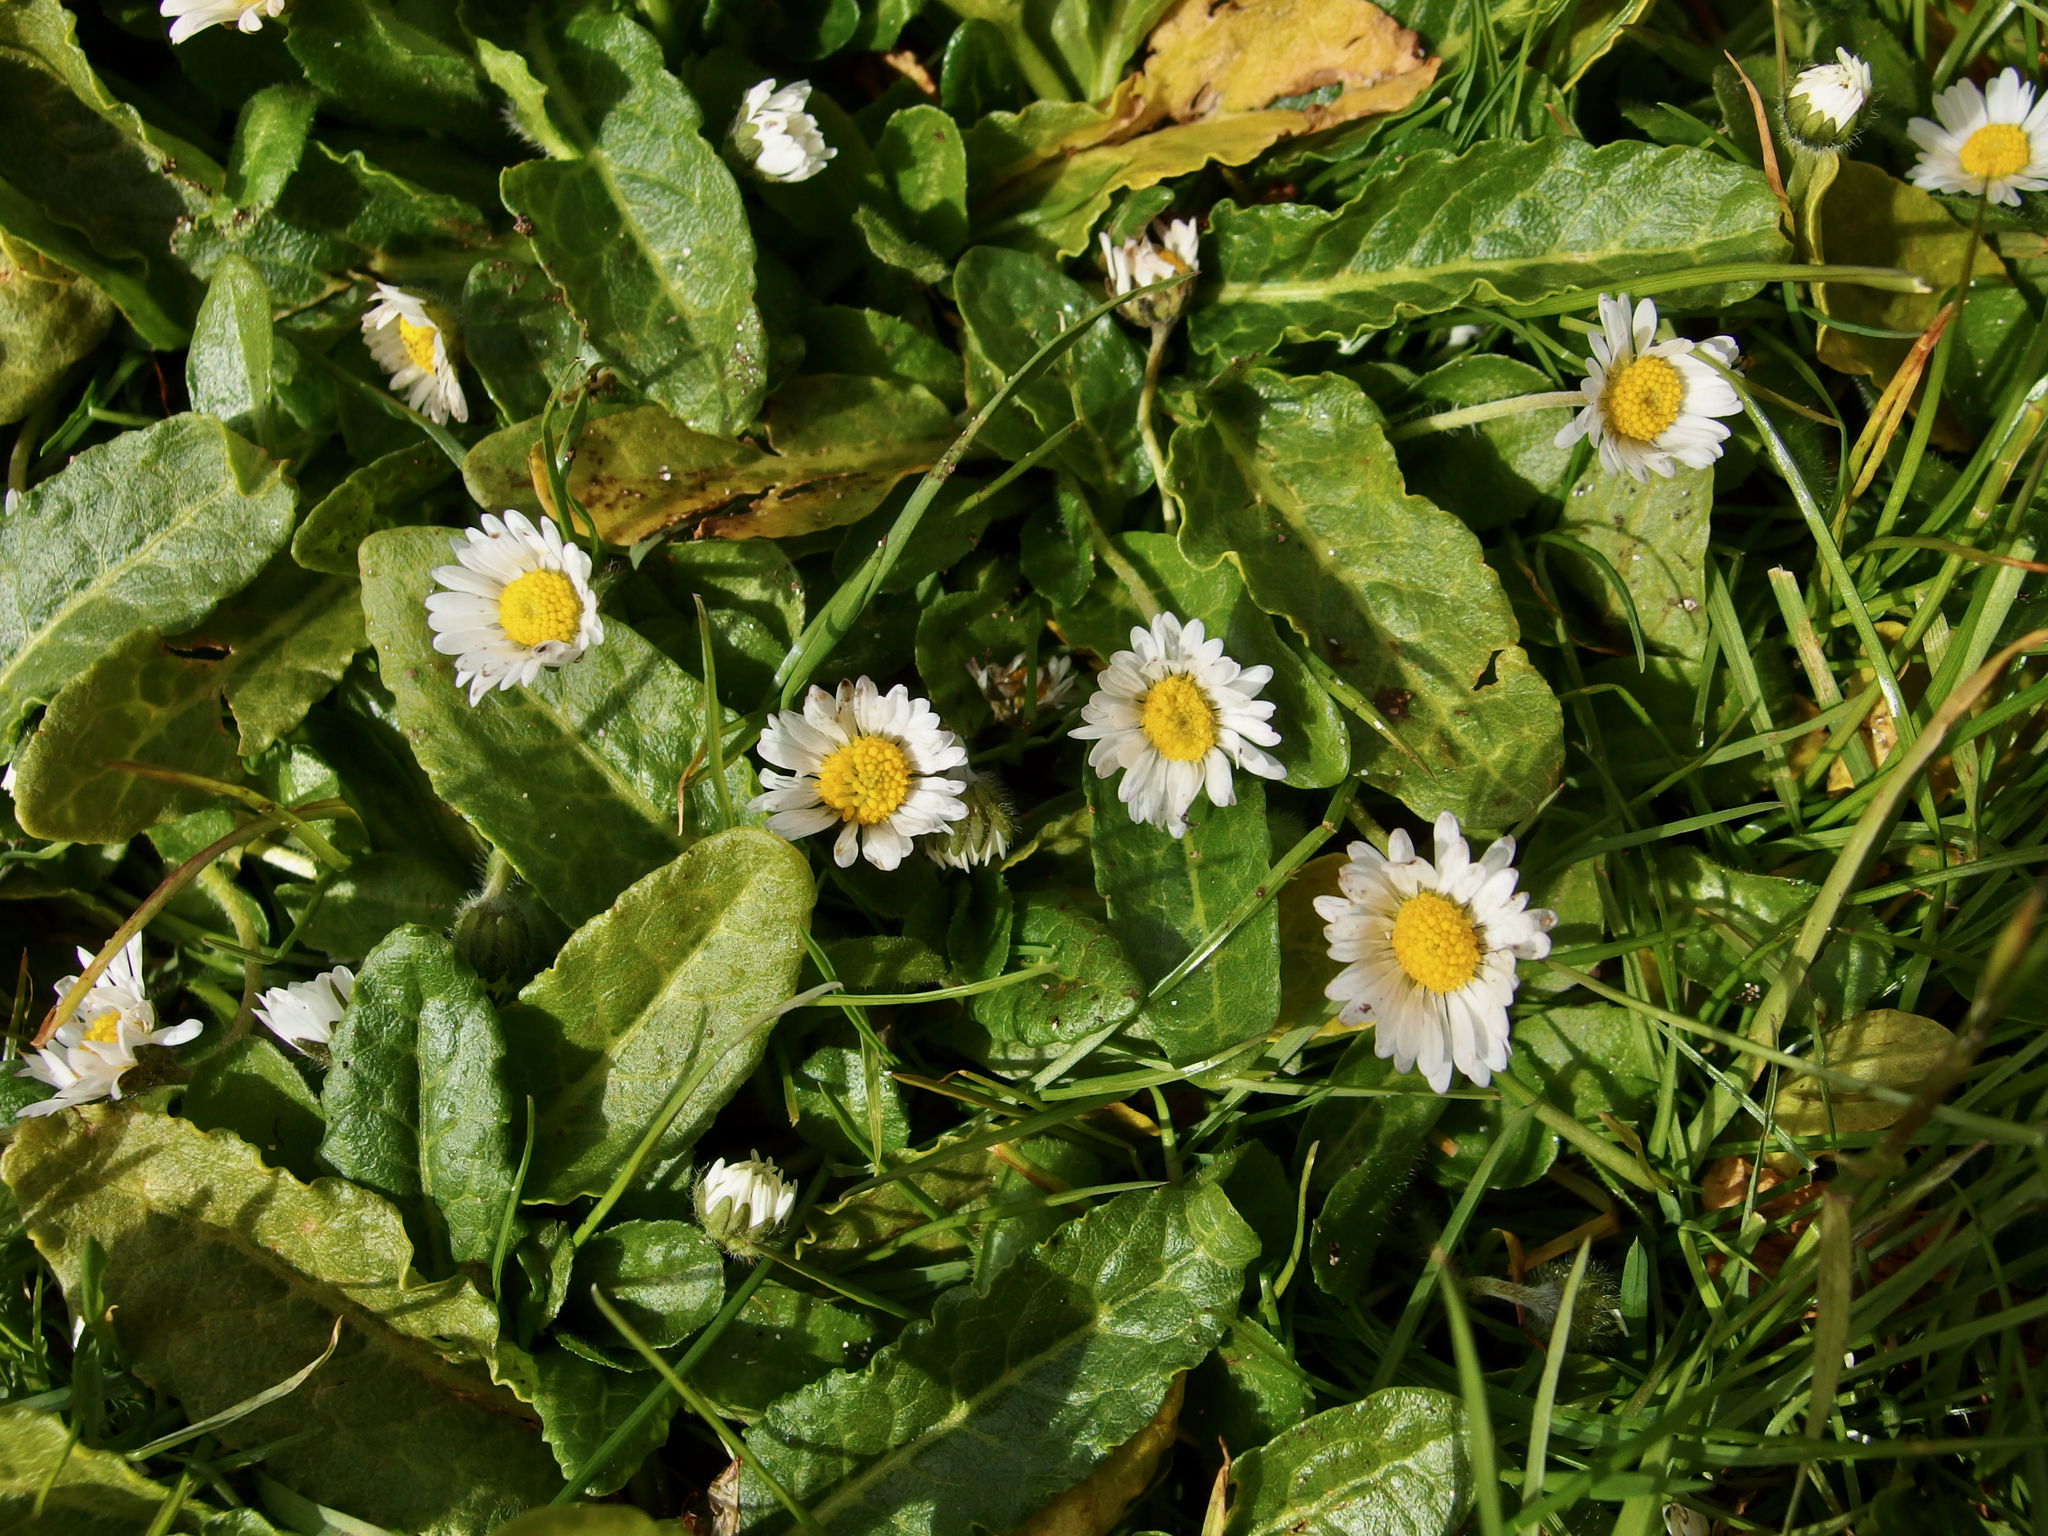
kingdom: Plantae
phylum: Tracheophyta
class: Magnoliopsida
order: Asterales
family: Asteraceae
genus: Bellis
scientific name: Bellis perennis
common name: Lawndaisy
